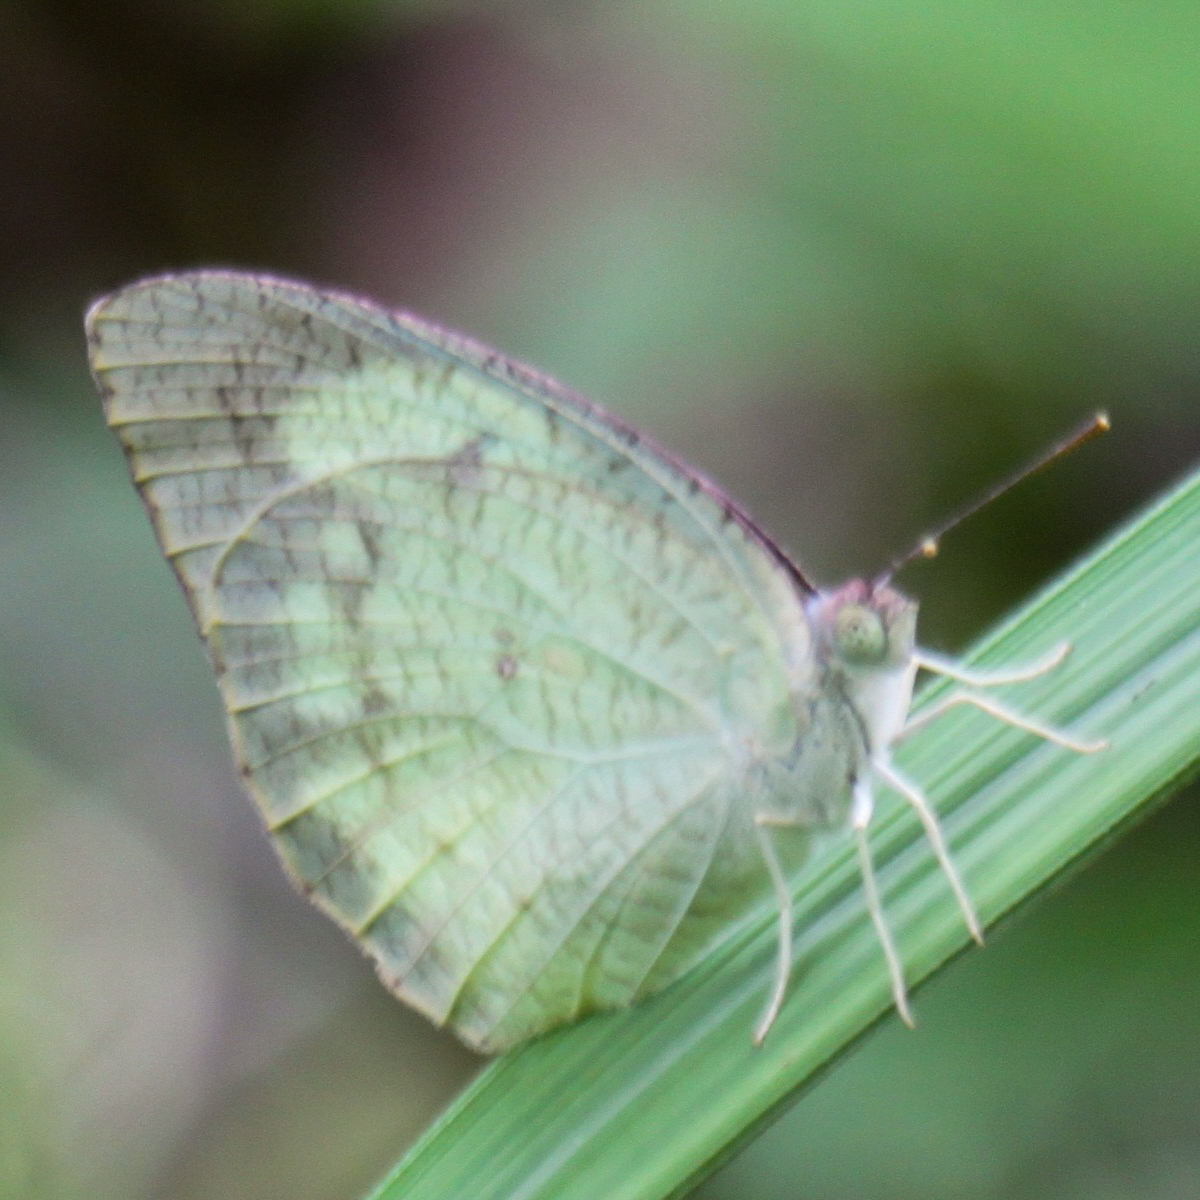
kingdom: Animalia
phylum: Arthropoda
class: Insecta
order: Lepidoptera
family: Pieridae
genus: Catopsilia
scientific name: Catopsilia pomona
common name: Common emigrant
